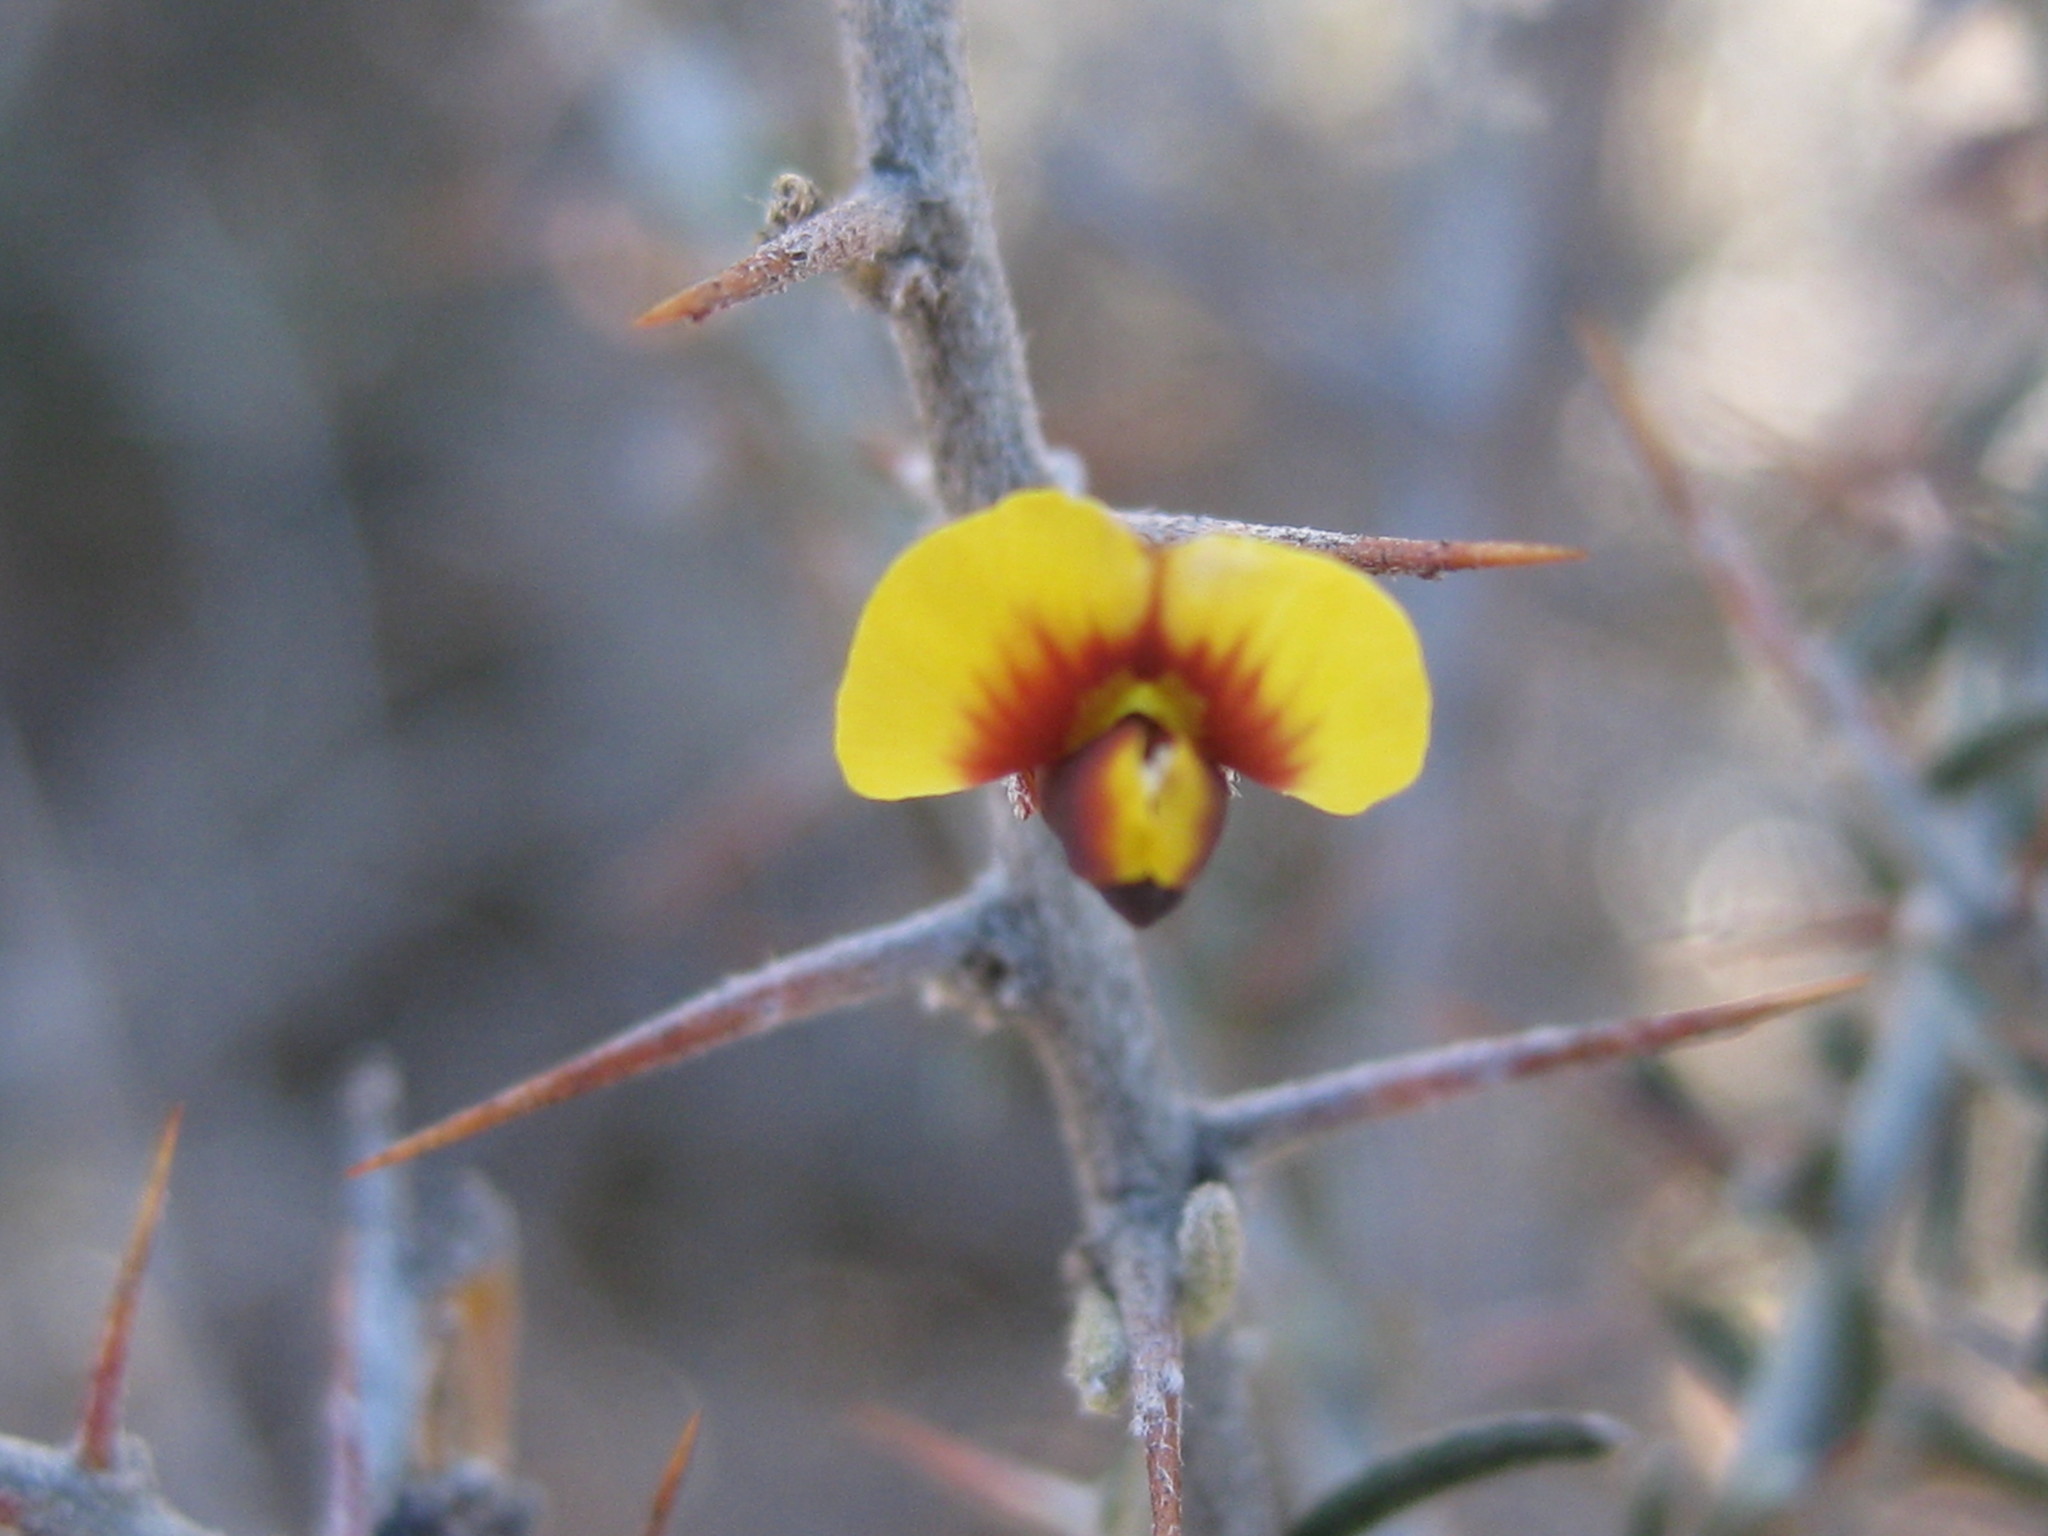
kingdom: Plantae
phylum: Tracheophyta
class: Magnoliopsida
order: Fabales
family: Fabaceae
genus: Mirbelia
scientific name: Mirbelia microphylla
